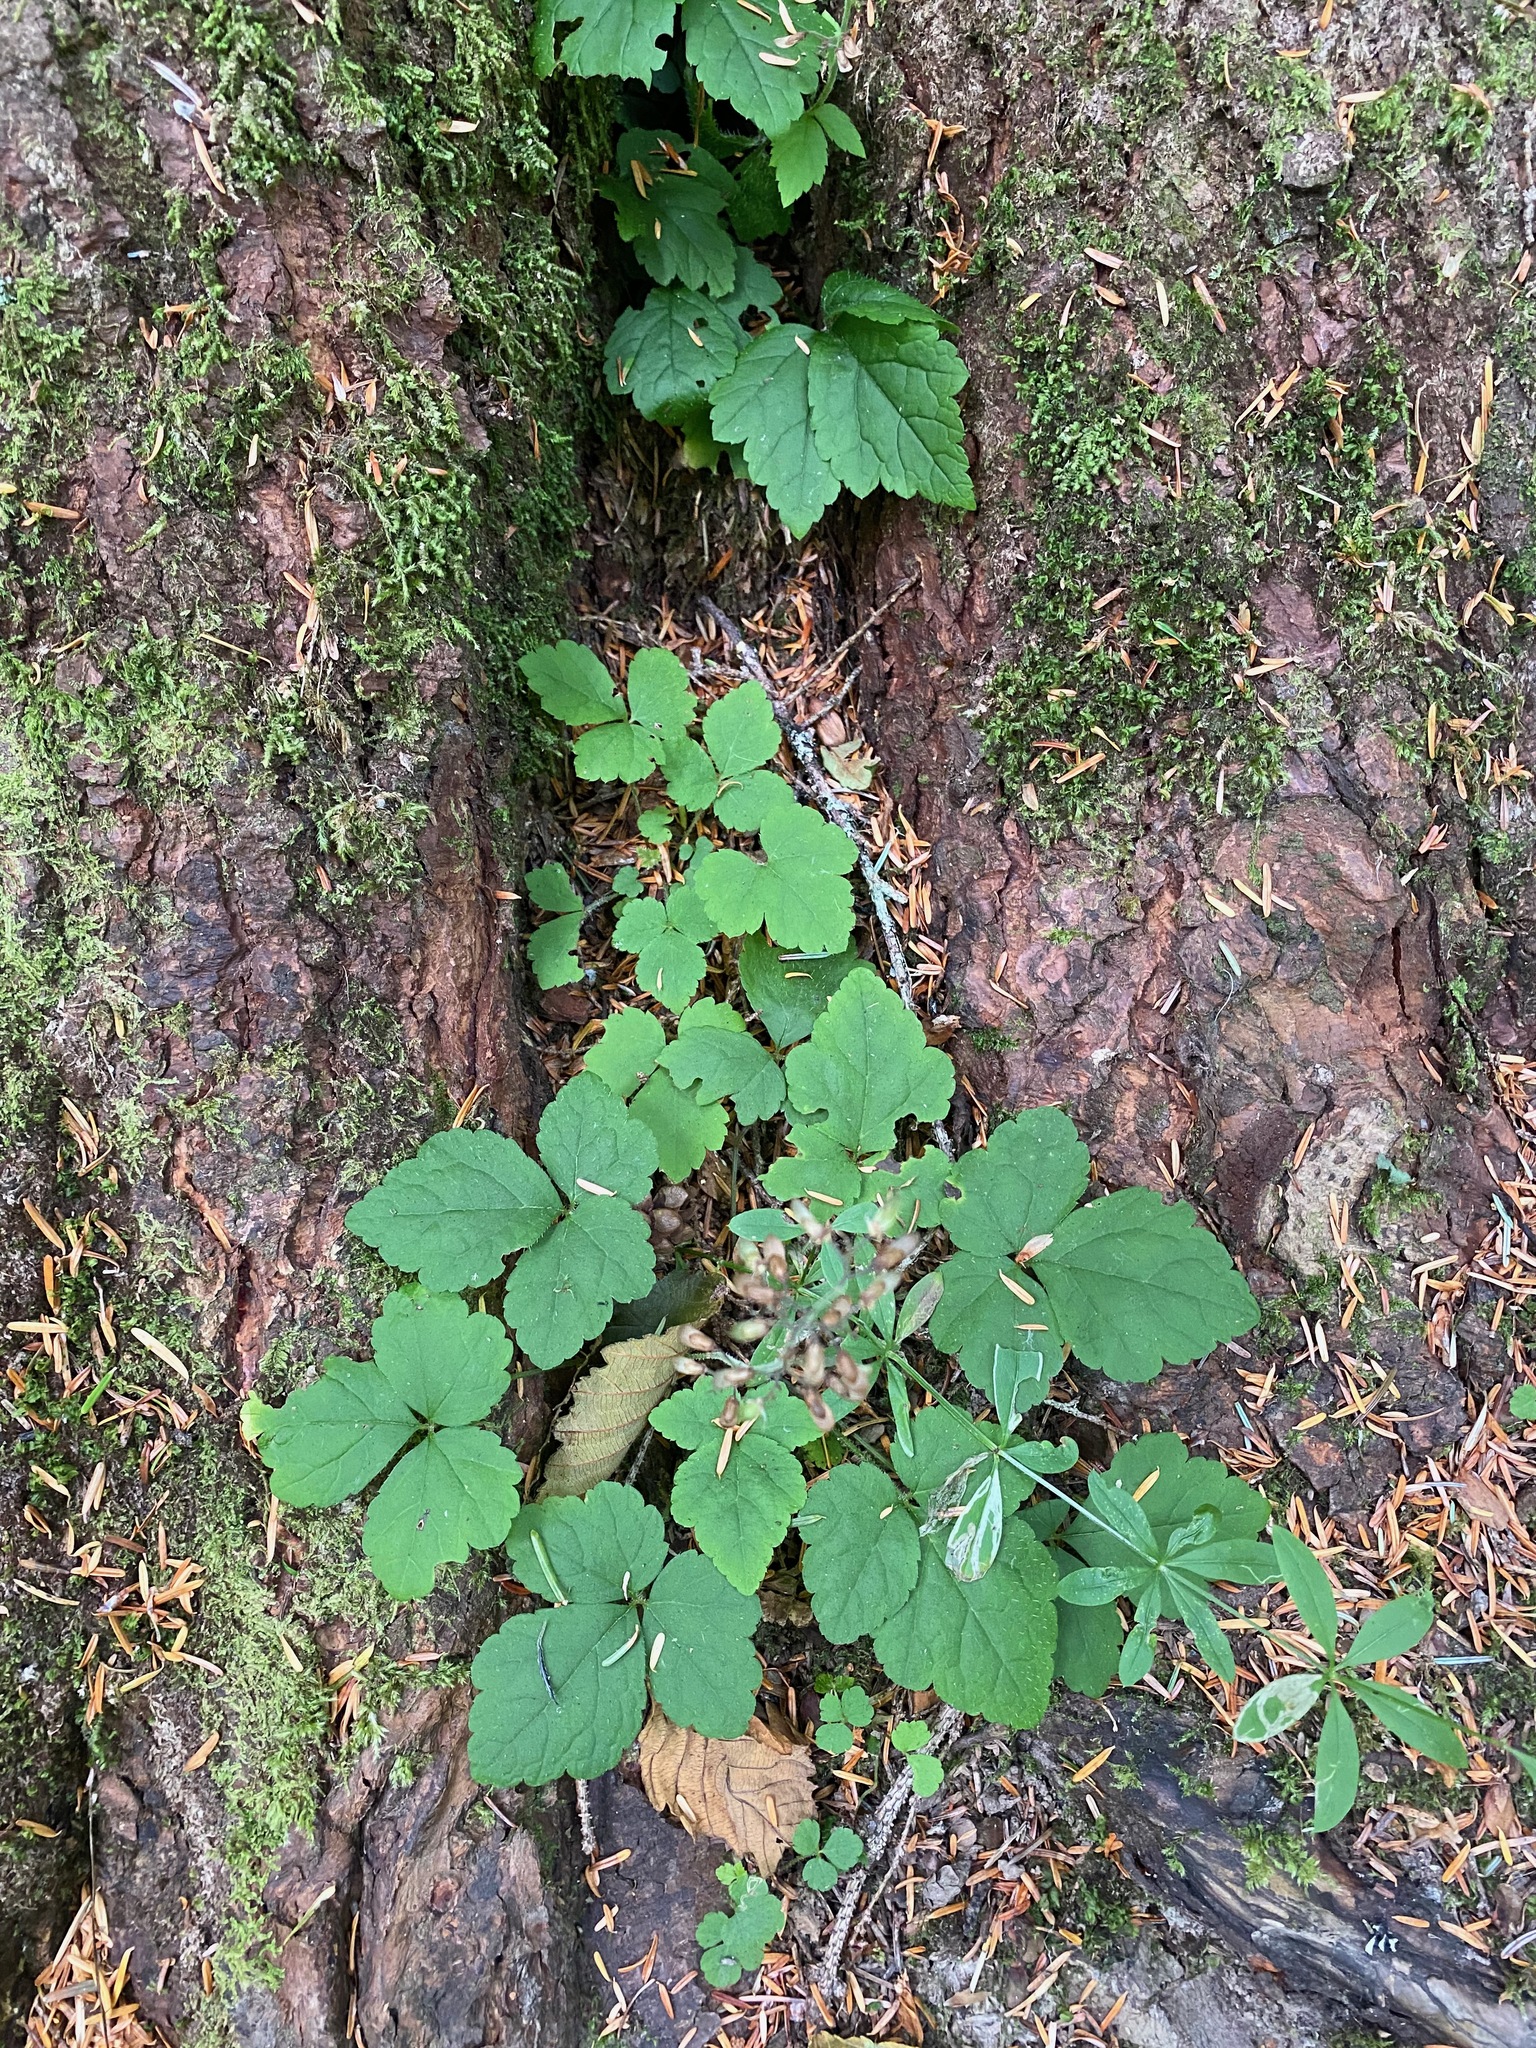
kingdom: Plantae
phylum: Tracheophyta
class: Magnoliopsida
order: Saxifragales
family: Saxifragaceae
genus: Tiarella
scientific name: Tiarella trifoliata
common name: Sugar-scoop
